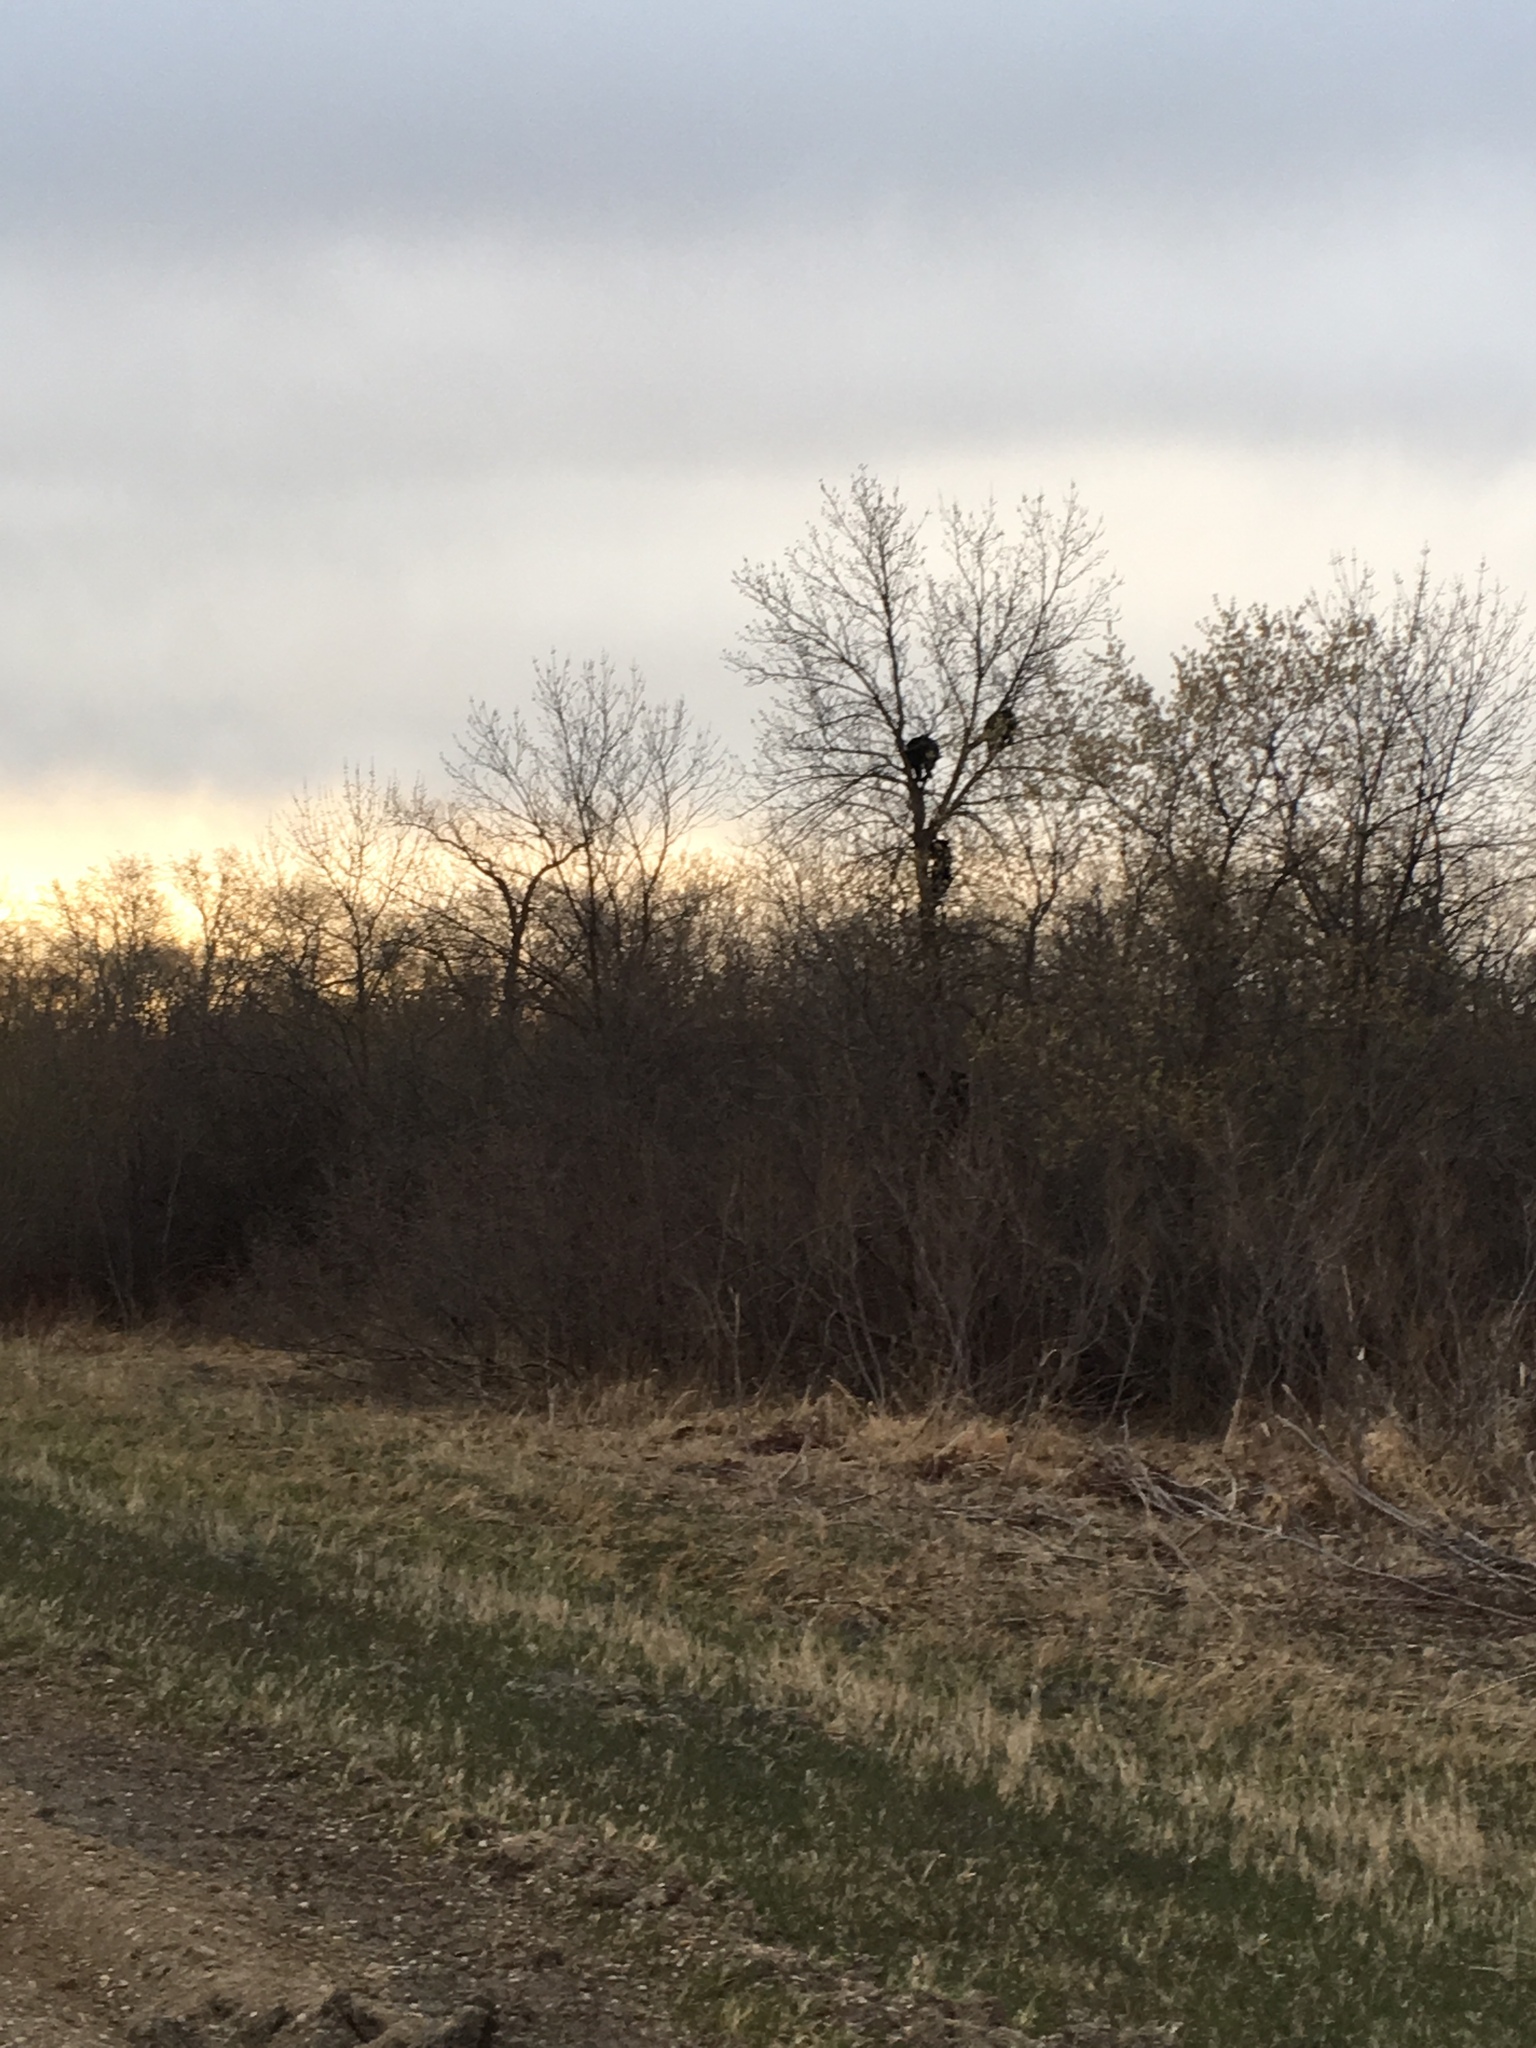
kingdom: Animalia
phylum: Chordata
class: Mammalia
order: Carnivora
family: Ursidae
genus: Ursus
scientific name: Ursus americanus
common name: American black bear
